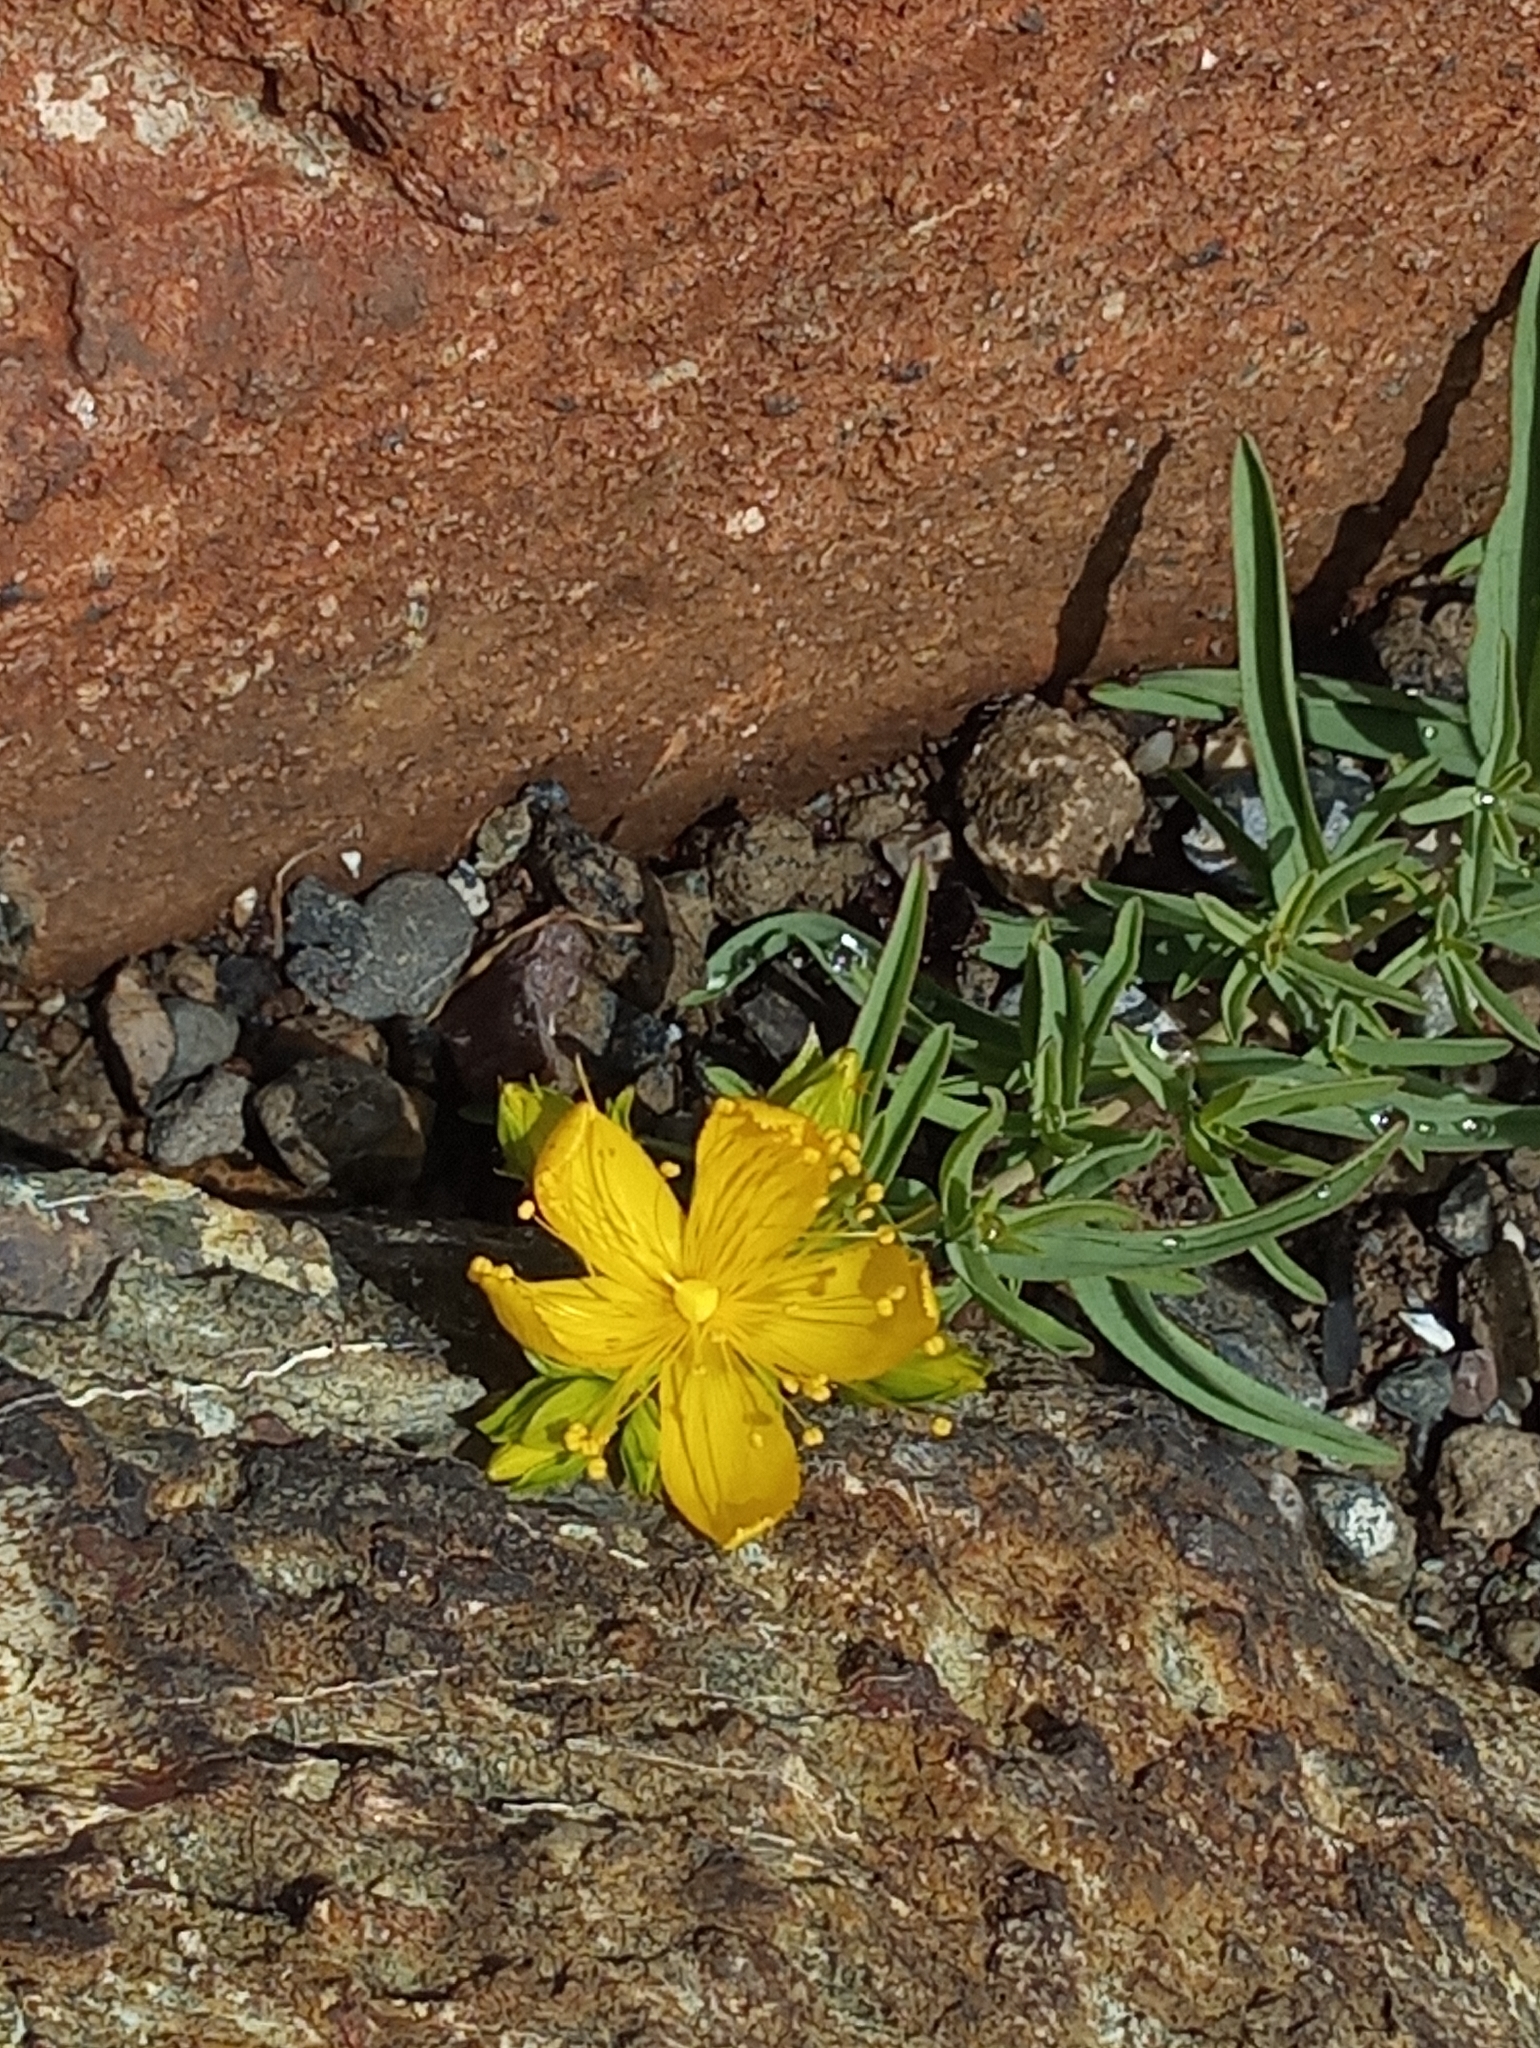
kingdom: Plantae
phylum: Tracheophyta
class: Magnoliopsida
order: Malpighiales
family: Hypericaceae
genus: Hypericum
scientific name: Hypericum concinnum
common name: Gold-wire
